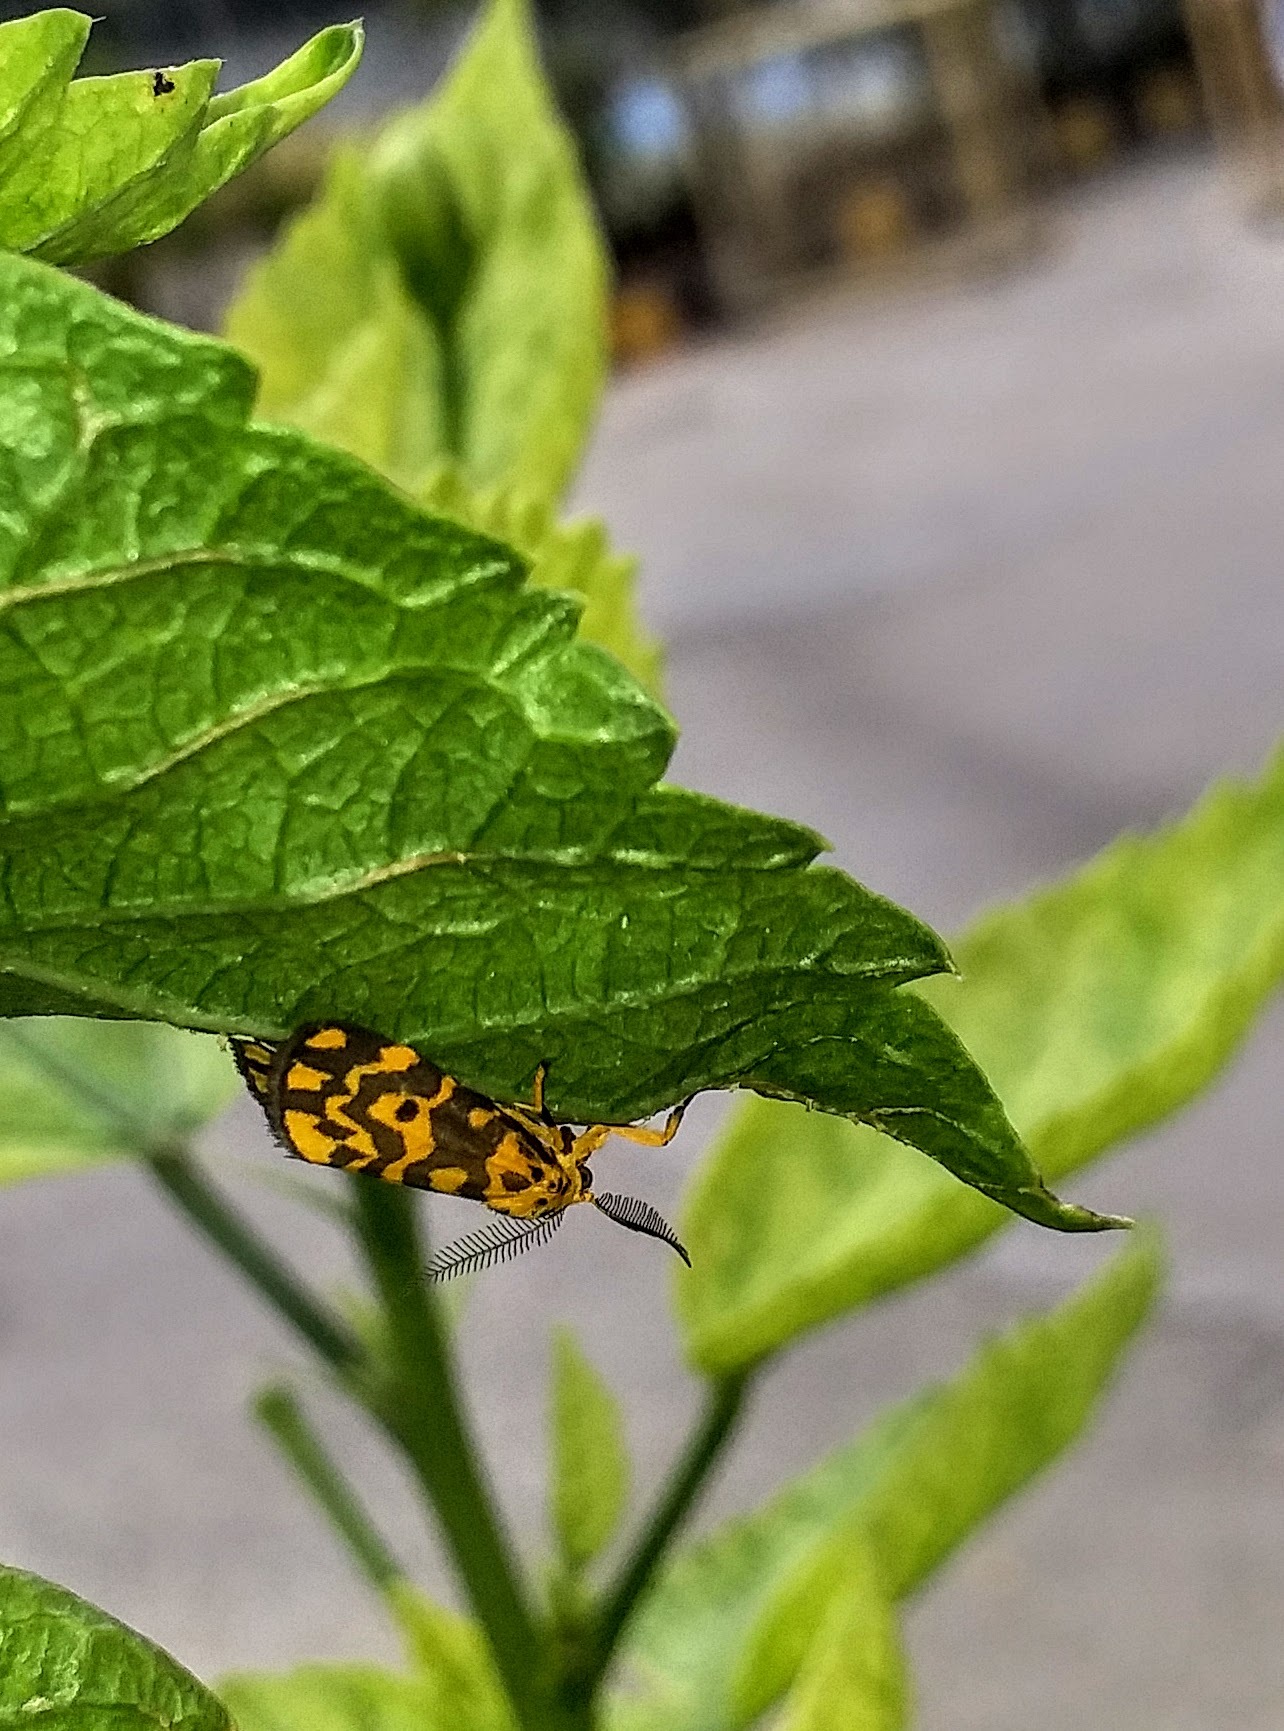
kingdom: Animalia
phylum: Arthropoda
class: Insecta
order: Lepidoptera
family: Erebidae
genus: Nepita
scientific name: Nepita conferta
